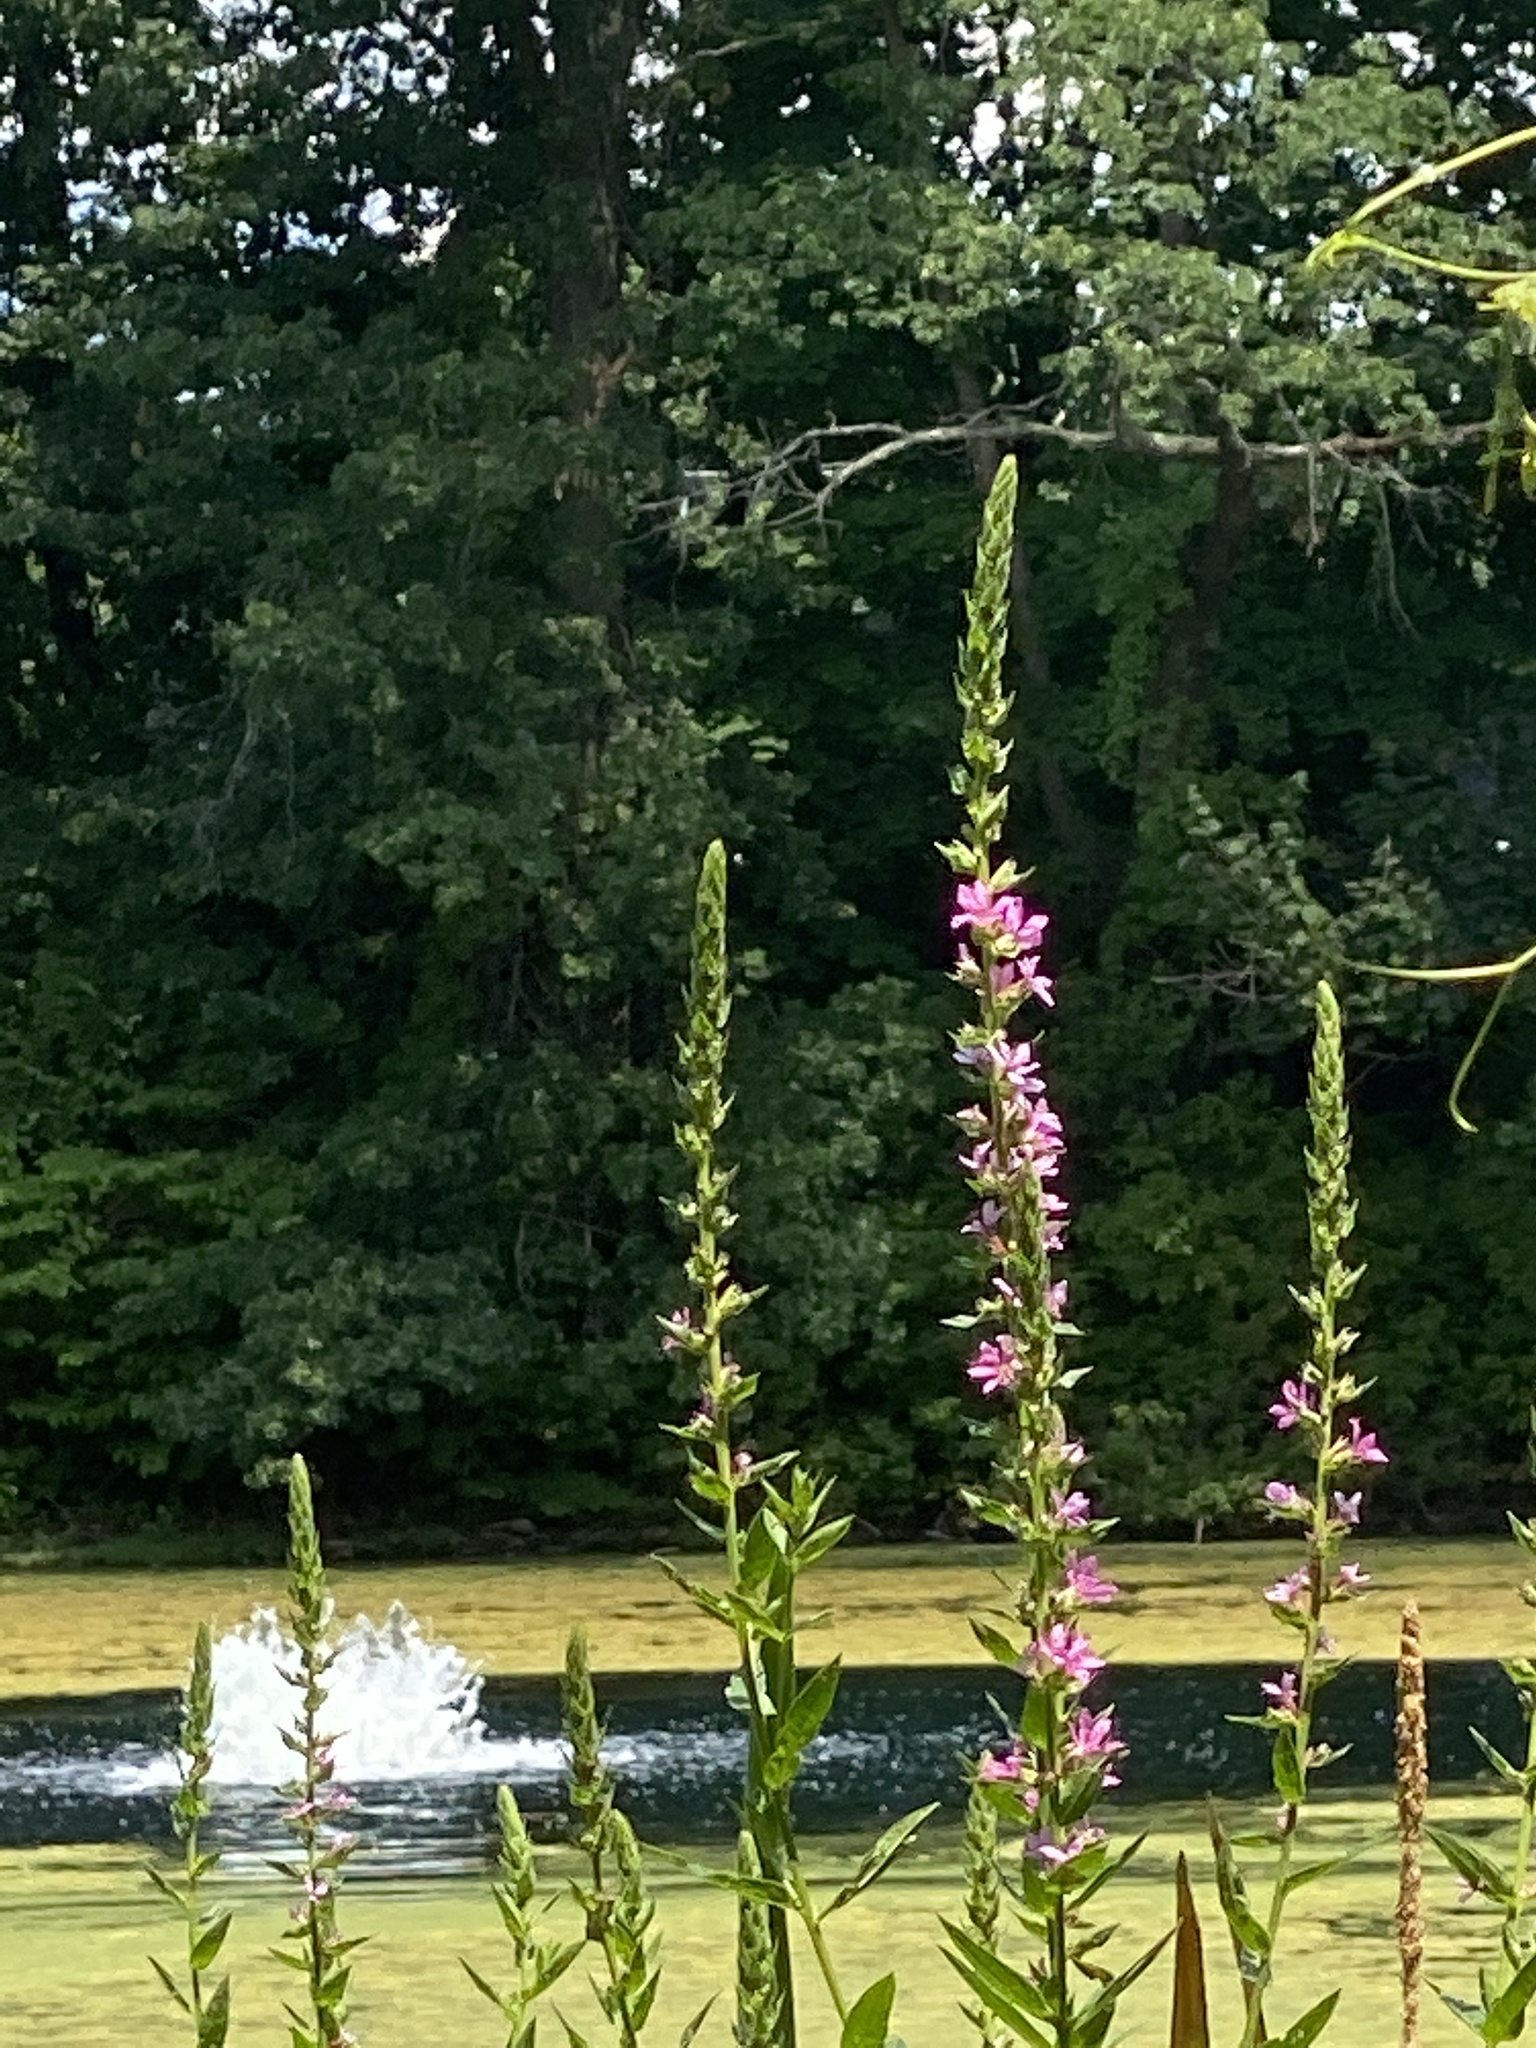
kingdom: Plantae
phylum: Tracheophyta
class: Magnoliopsida
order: Myrtales
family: Lythraceae
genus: Lythrum
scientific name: Lythrum salicaria
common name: Purple loosestrife
